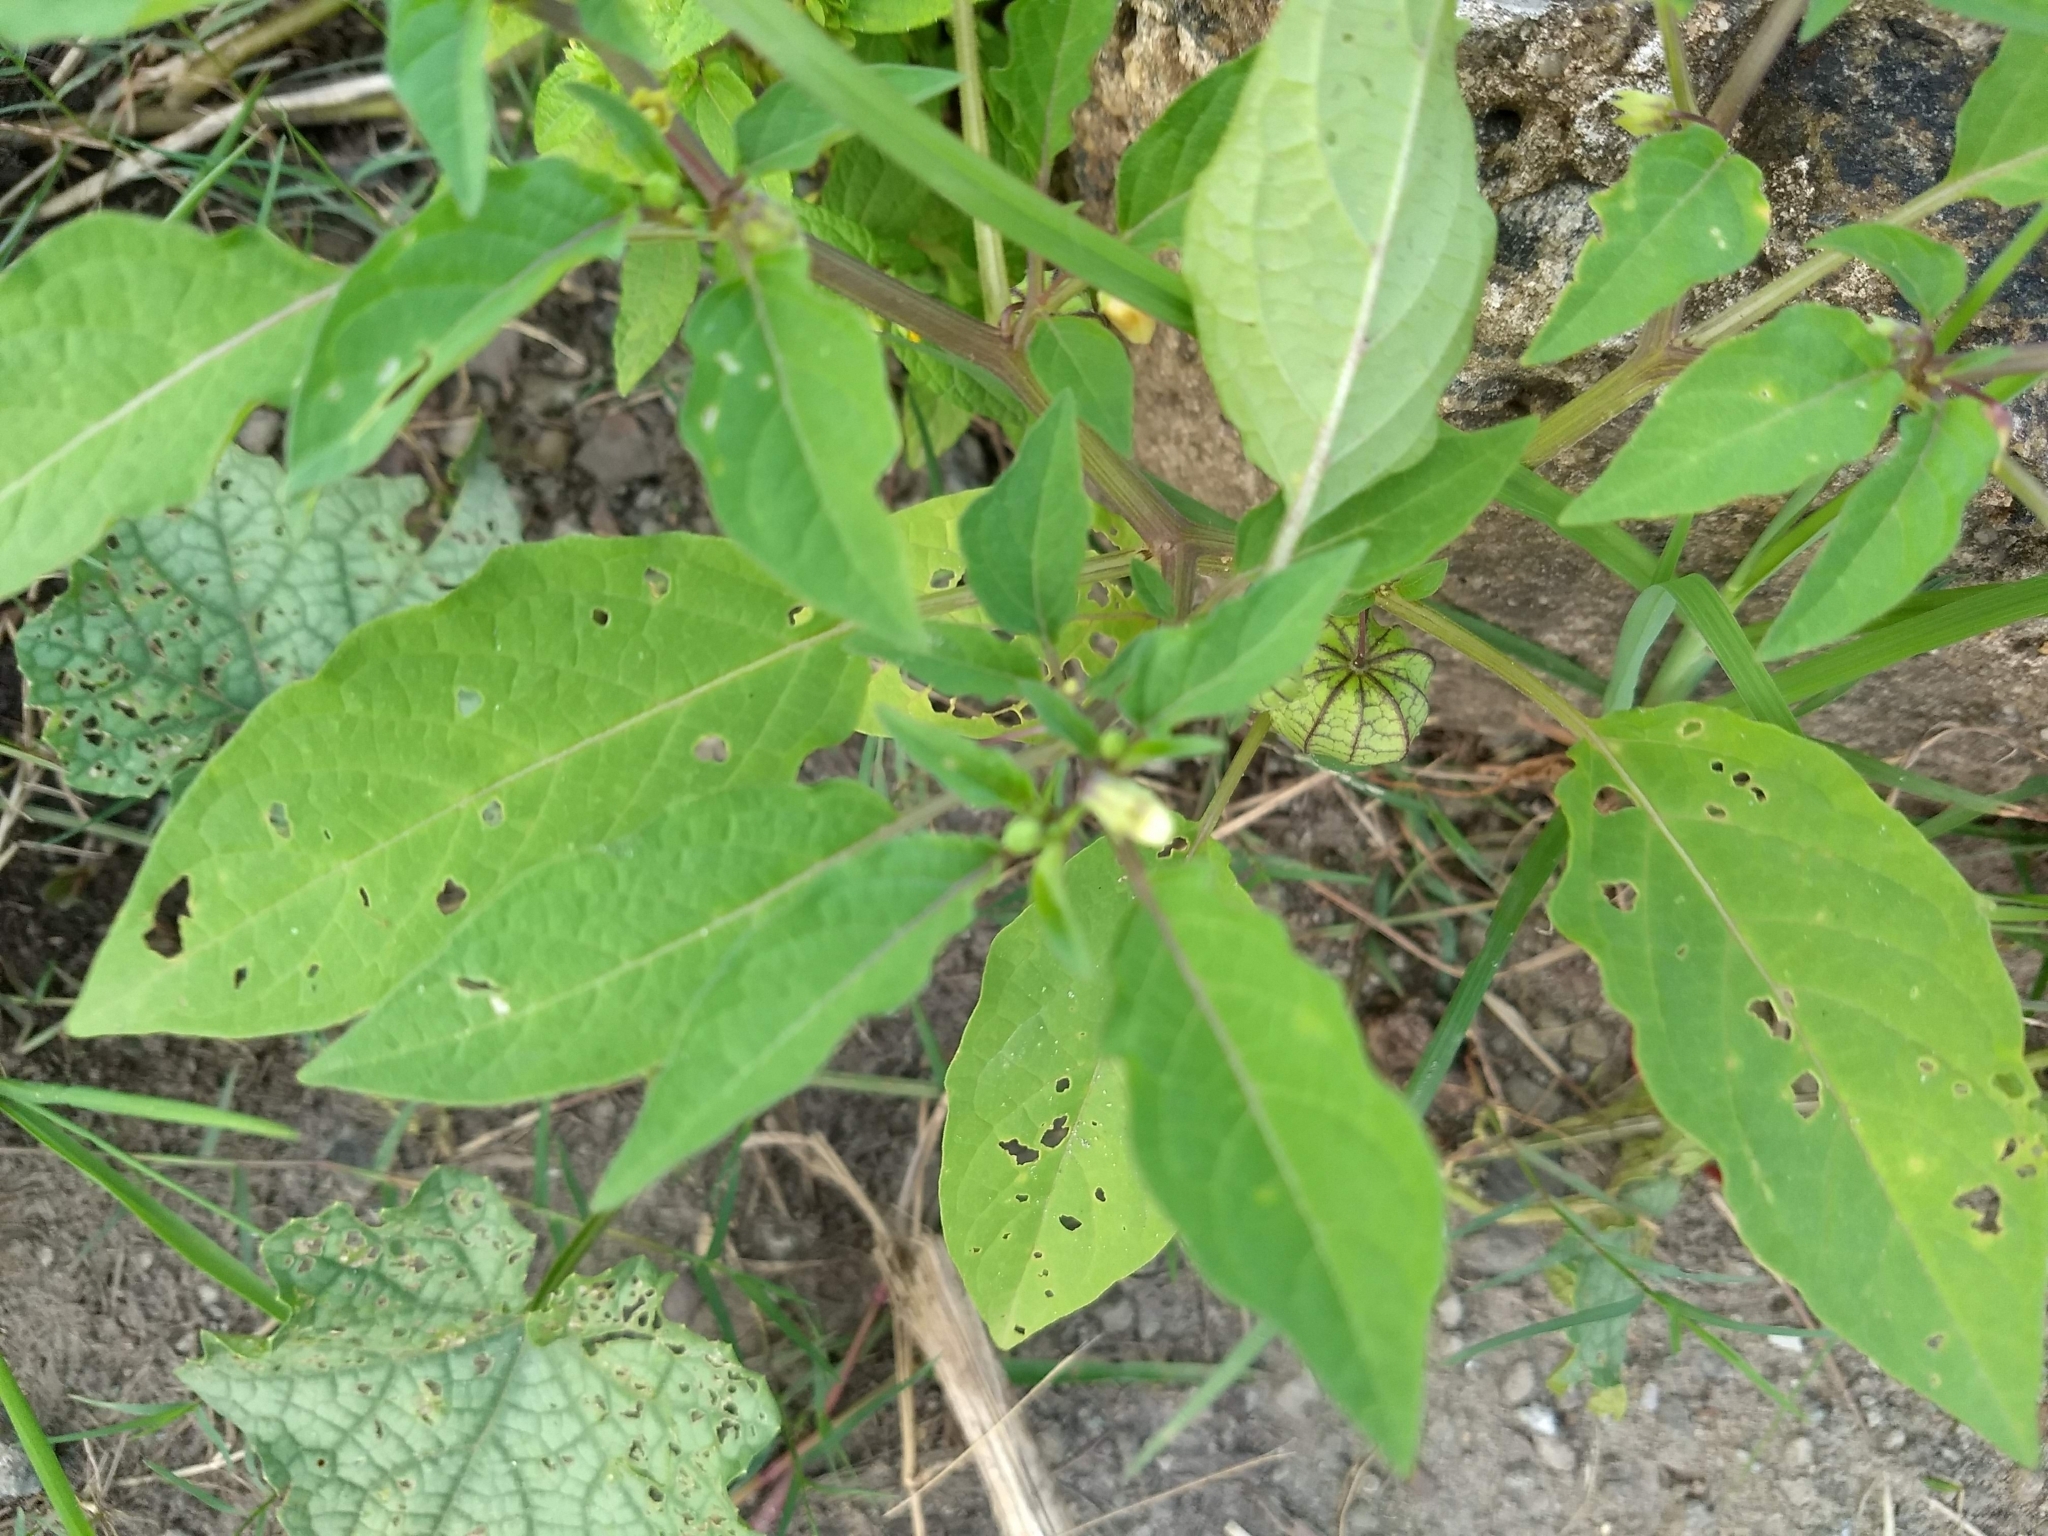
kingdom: Plantae
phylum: Tracheophyta
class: Magnoliopsida
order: Solanales
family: Solanaceae
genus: Physalis
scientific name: Physalis angulata
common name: Angular winter-cherry
